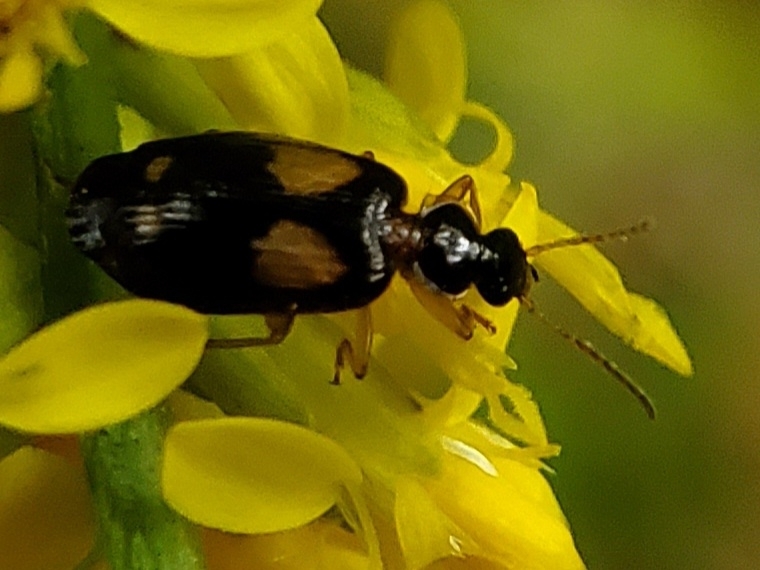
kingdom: Animalia
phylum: Arthropoda
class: Insecta
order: Coleoptera
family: Carabidae
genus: Lebia
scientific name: Lebia ornata
